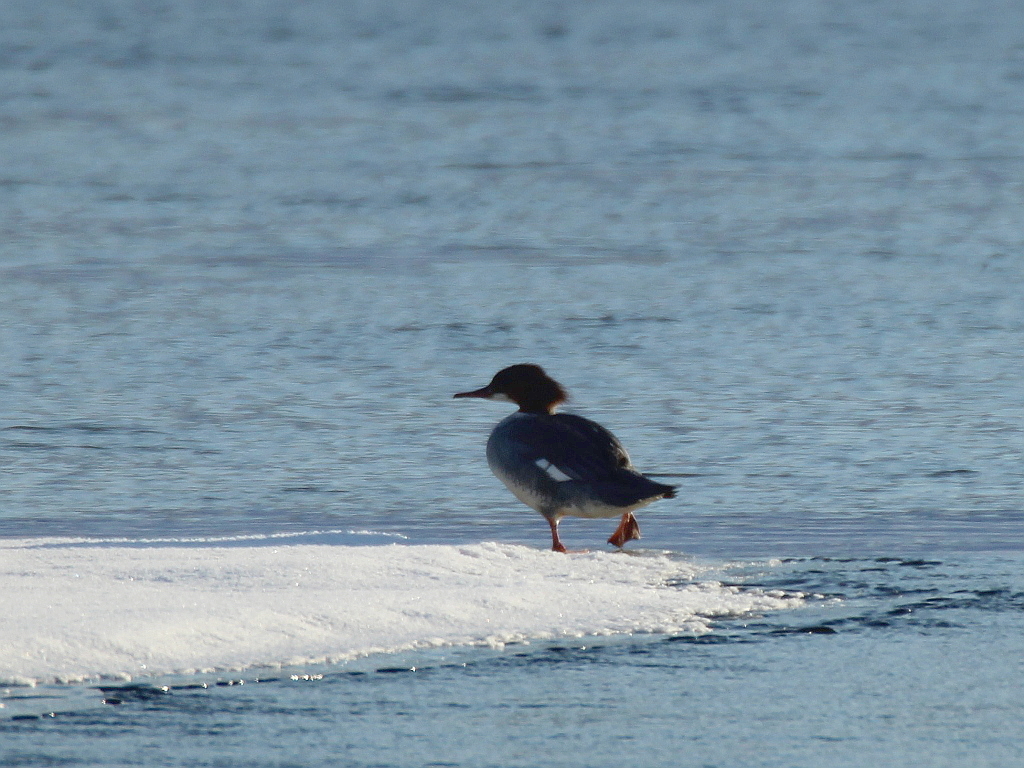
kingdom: Animalia
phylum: Chordata
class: Aves
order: Anseriformes
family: Anatidae
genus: Mergus
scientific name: Mergus merganser
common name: Common merganser
